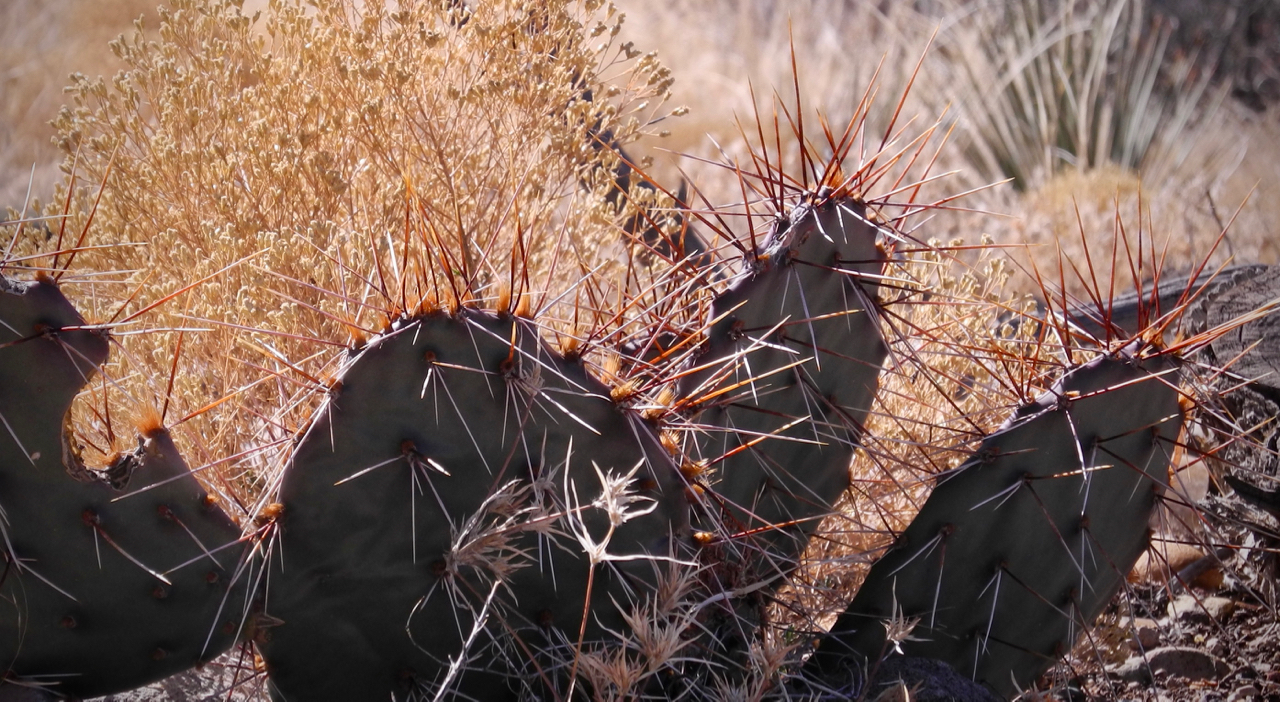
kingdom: Plantae
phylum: Tracheophyta
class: Magnoliopsida
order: Caryophyllales
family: Cactaceae
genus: Opuntia
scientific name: Opuntia phaeacantha
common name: New mexico prickly-pear
